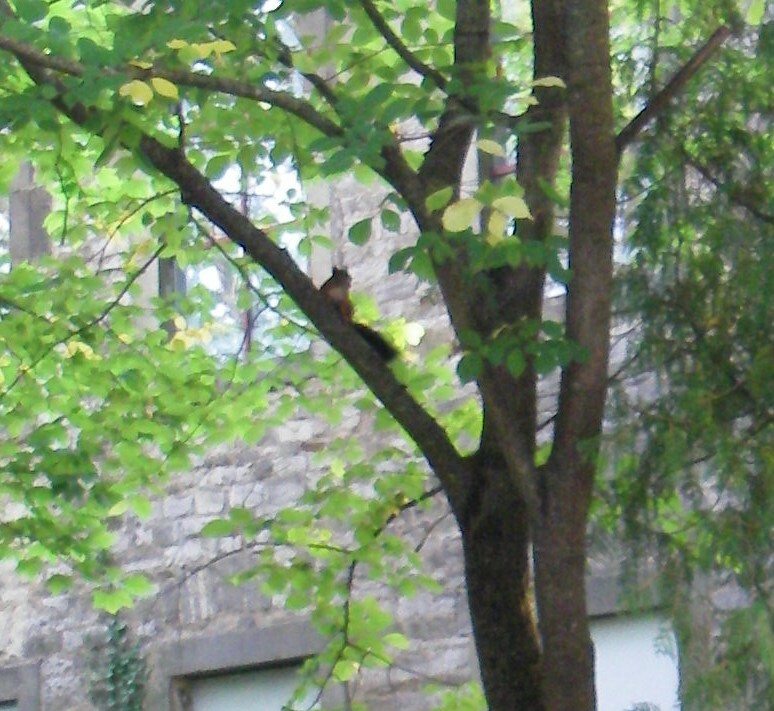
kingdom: Animalia
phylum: Chordata
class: Mammalia
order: Rodentia
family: Sciuridae
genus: Sciurus
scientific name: Sciurus vulgaris
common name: Eurasian red squirrel
